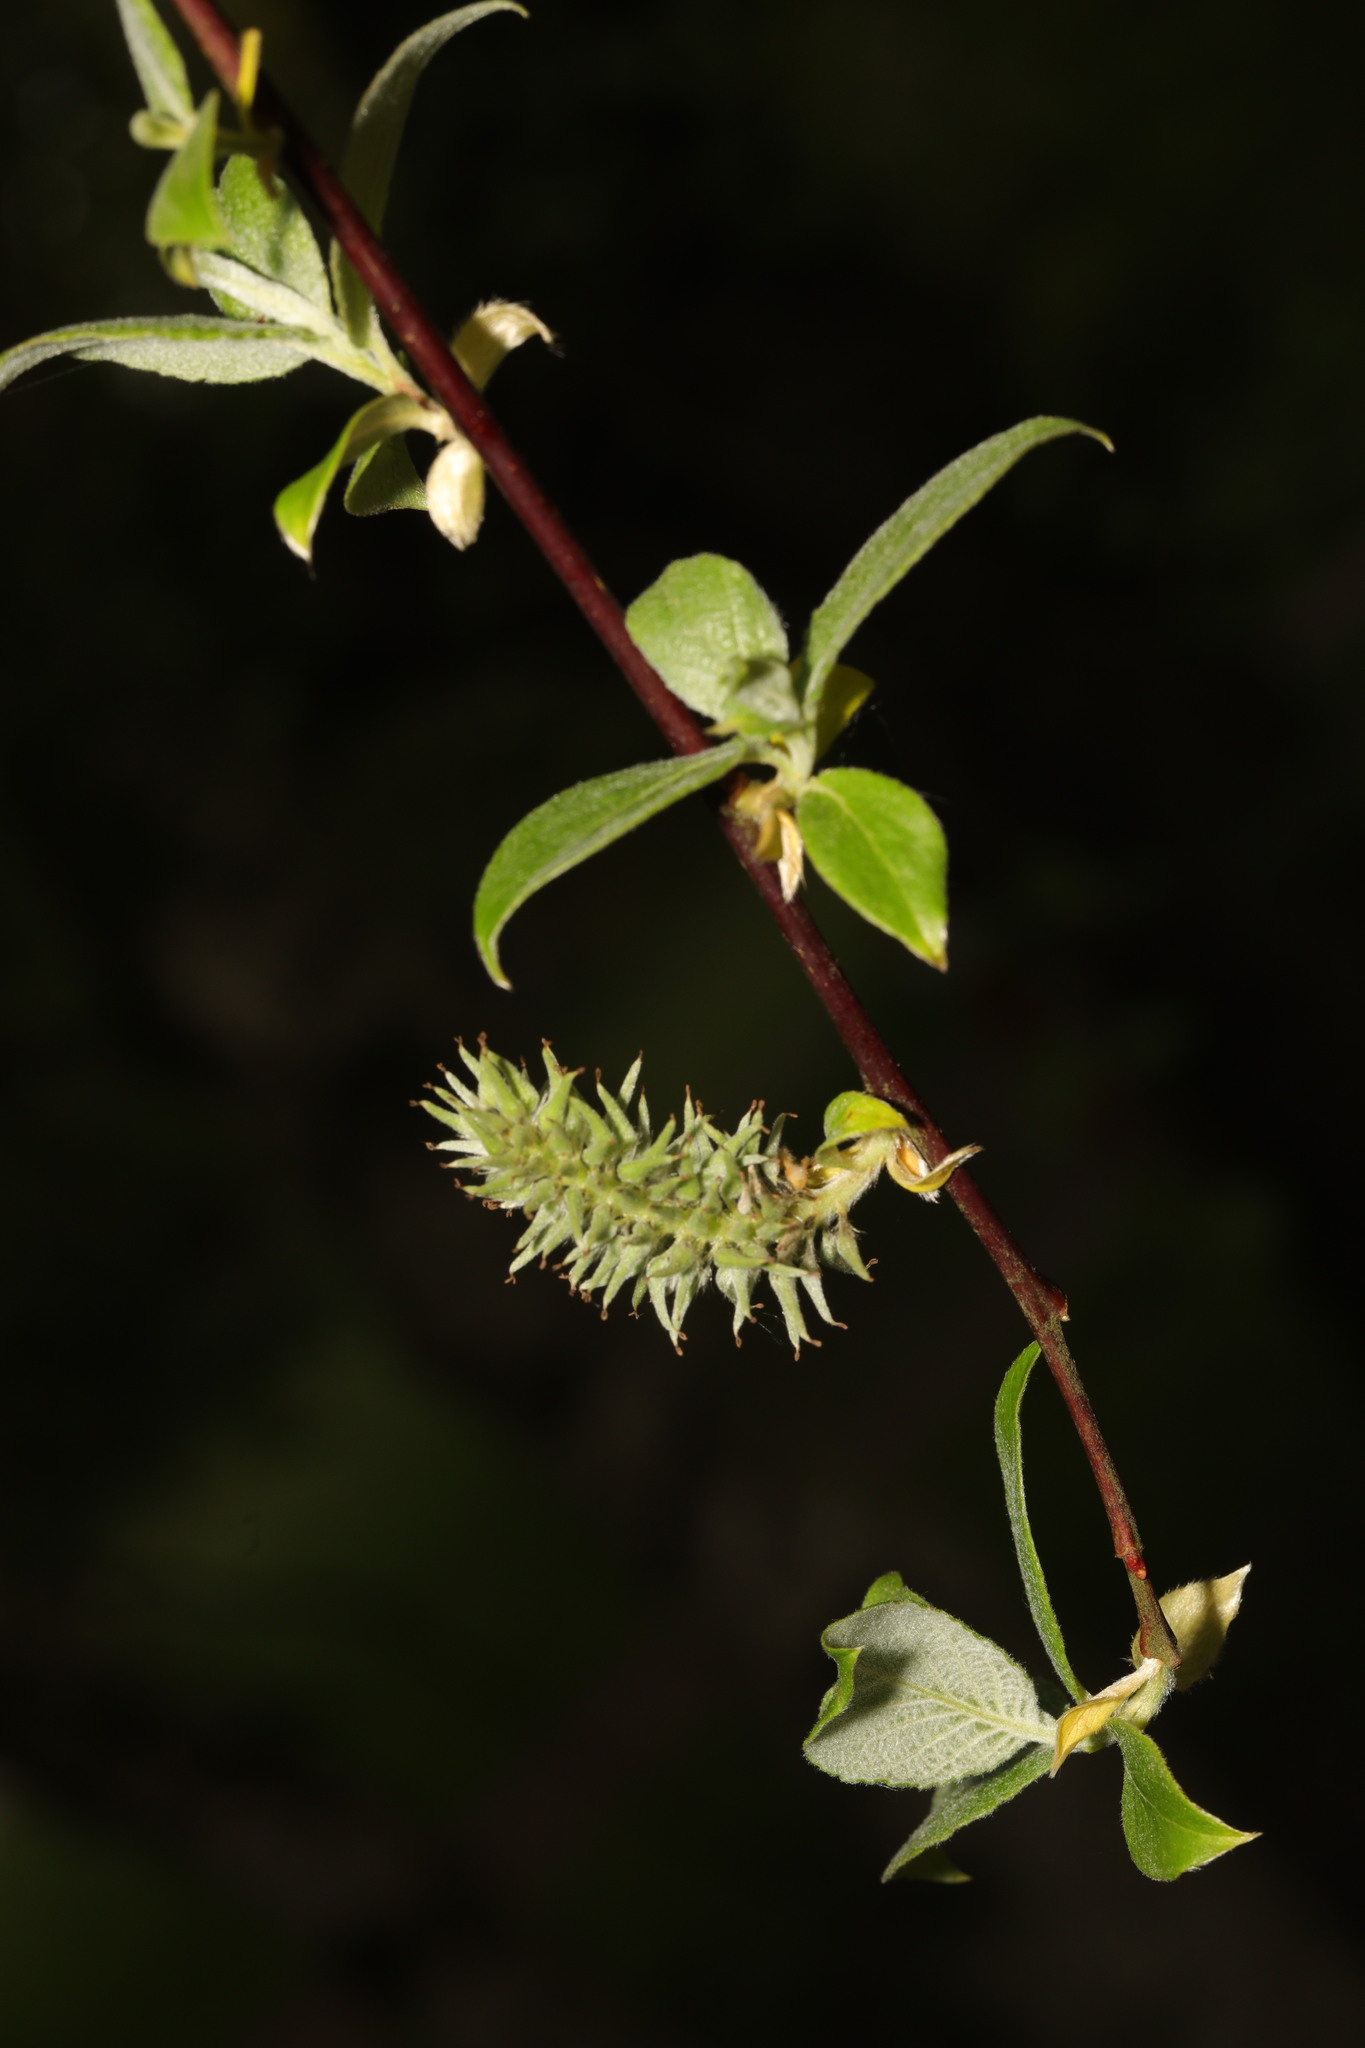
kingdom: Plantae
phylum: Tracheophyta
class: Magnoliopsida
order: Malpighiales
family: Salicaceae
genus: Salix
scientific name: Salix cinerea
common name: Common sallow
